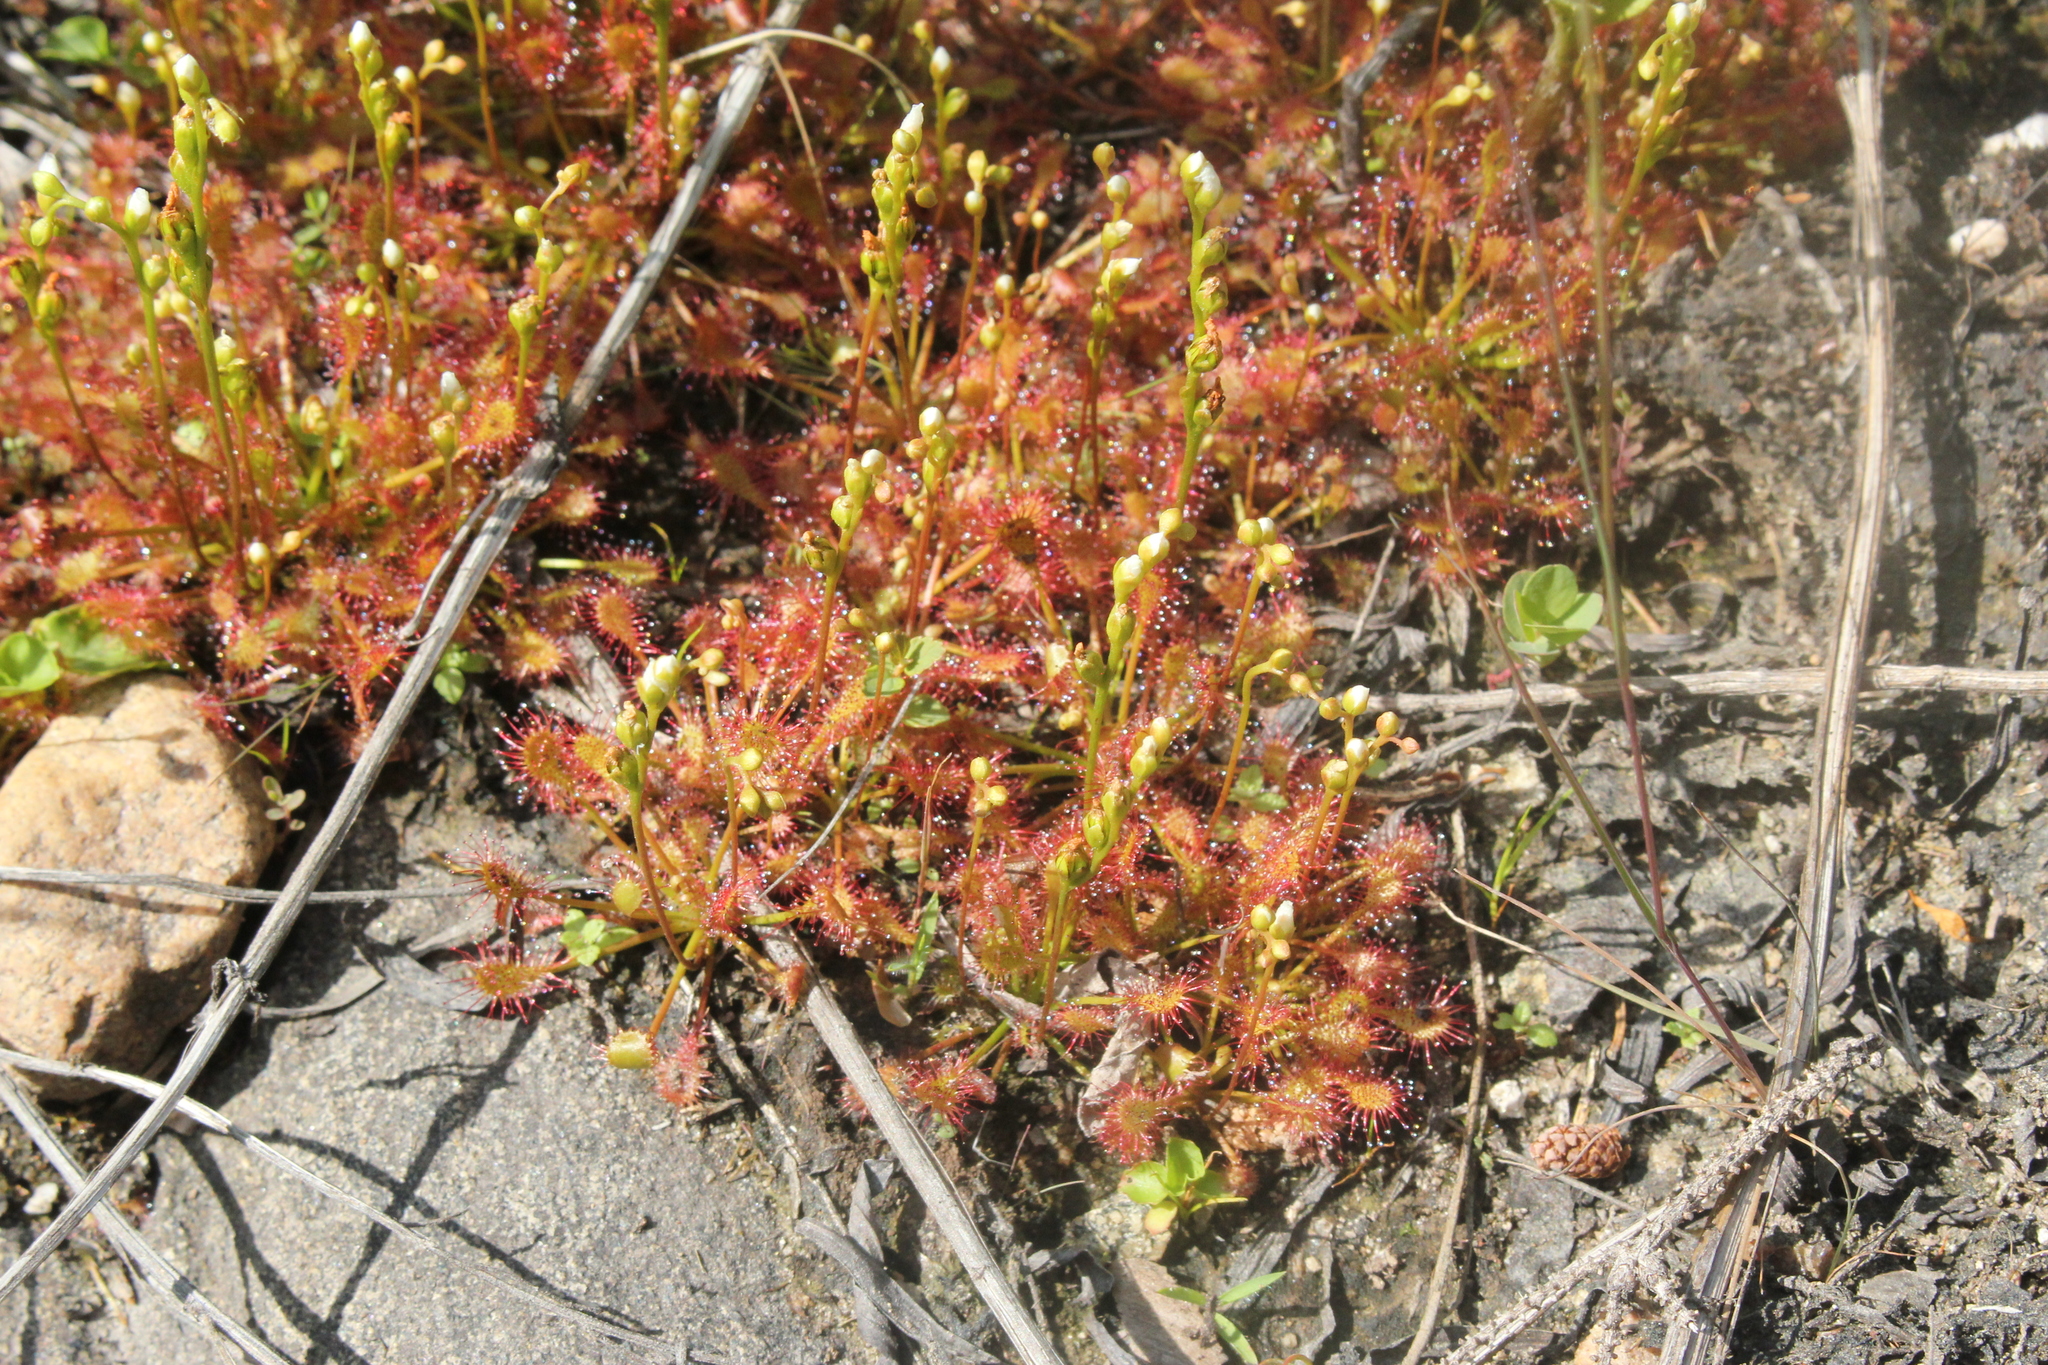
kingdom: Plantae
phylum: Tracheophyta
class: Magnoliopsida
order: Caryophyllales
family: Droseraceae
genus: Drosera
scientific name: Drosera intermedia
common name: Oblong-leaved sundew
